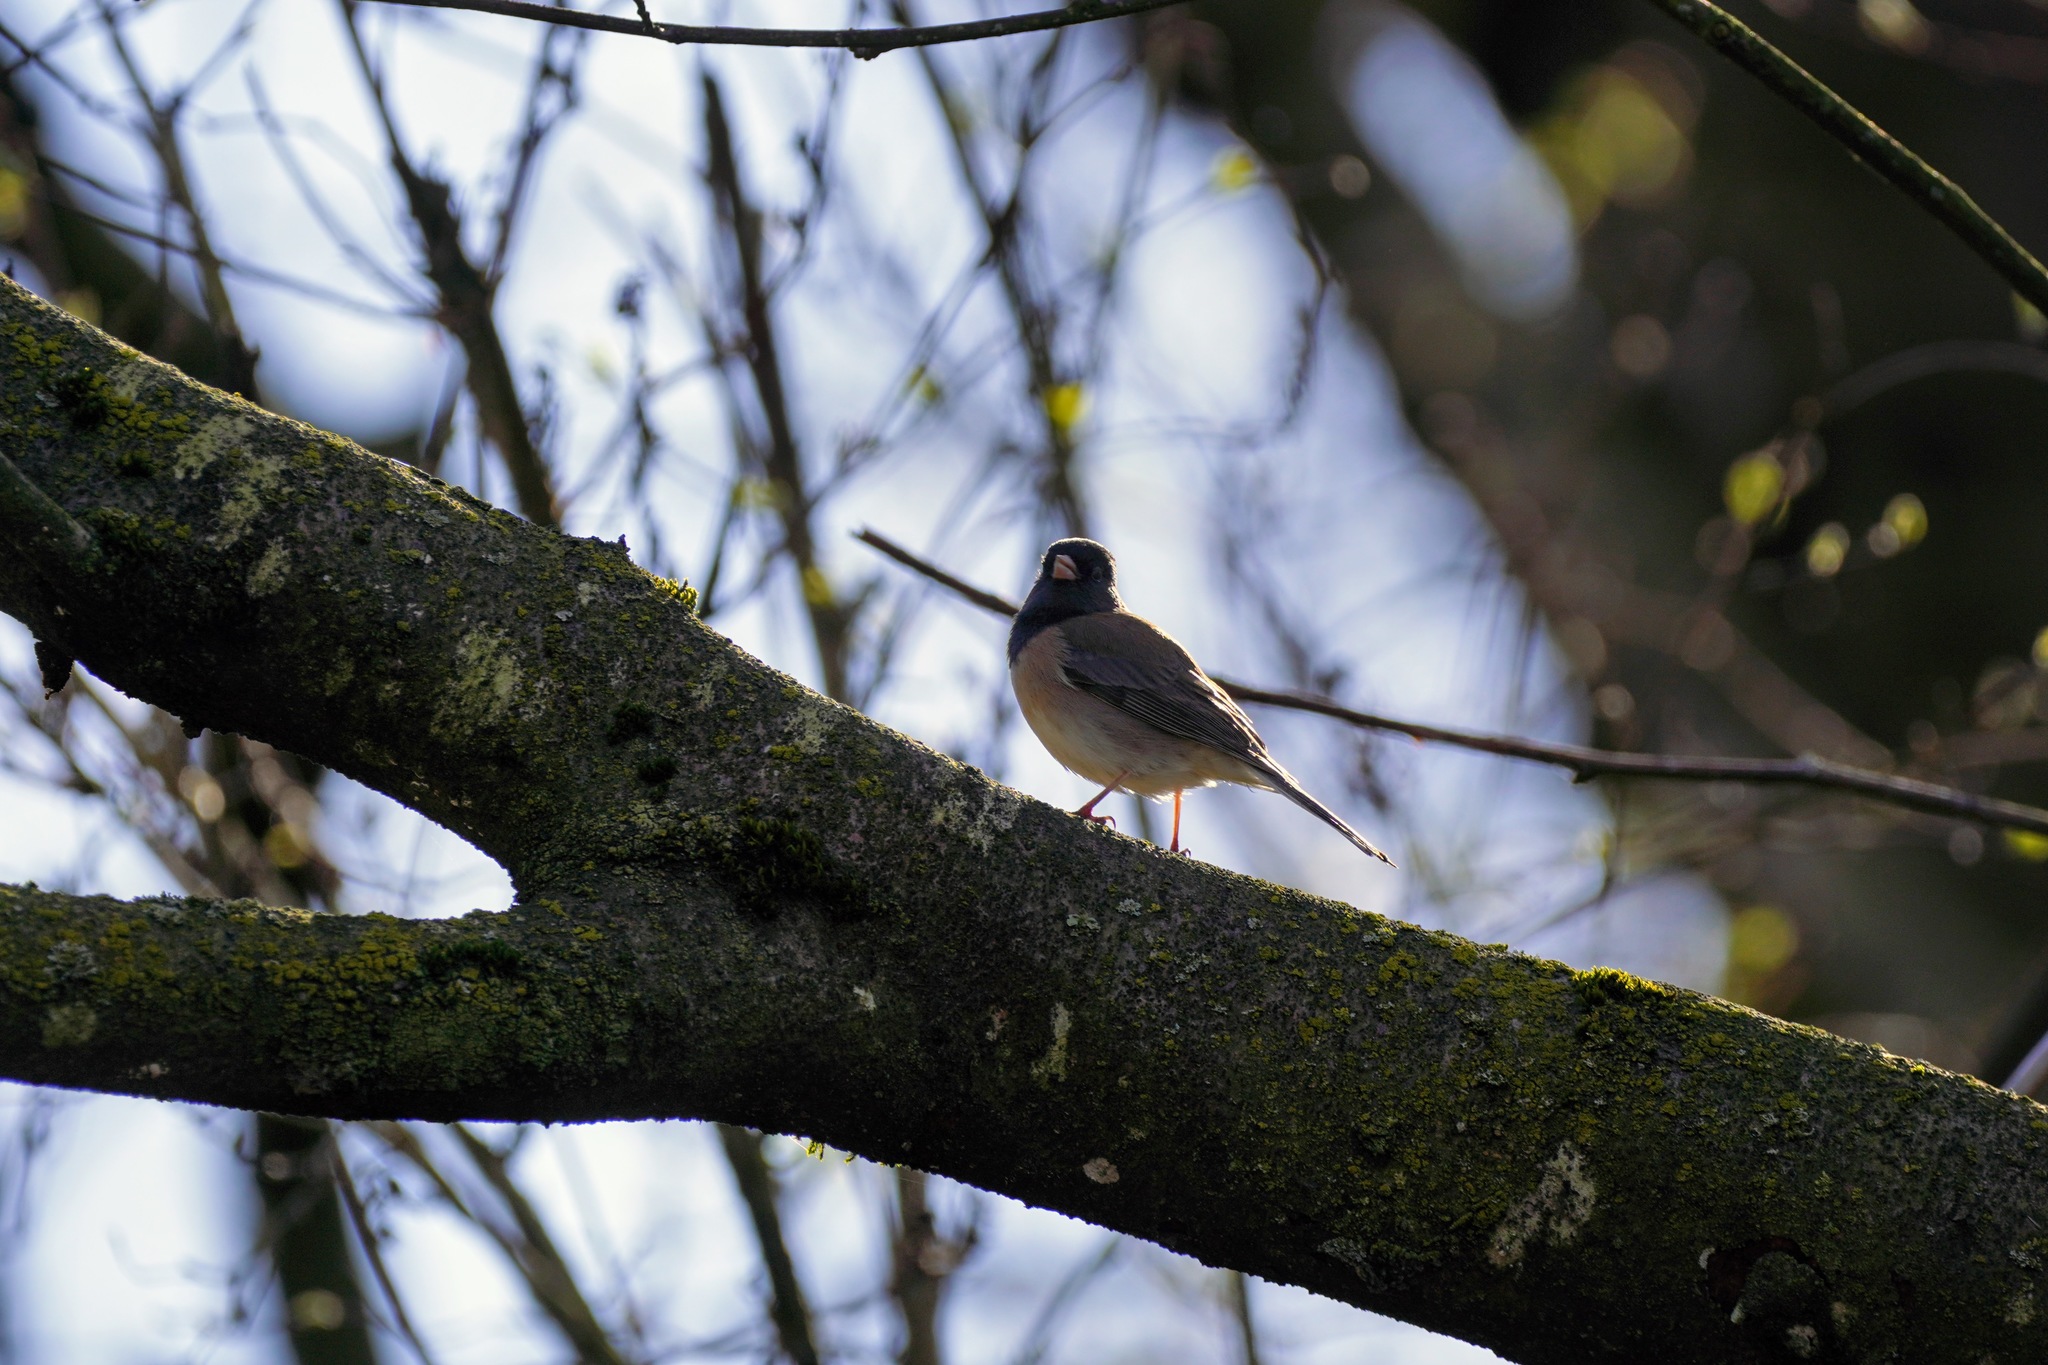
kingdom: Animalia
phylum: Chordata
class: Aves
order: Passeriformes
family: Passerellidae
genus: Junco
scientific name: Junco hyemalis
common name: Dark-eyed junco
